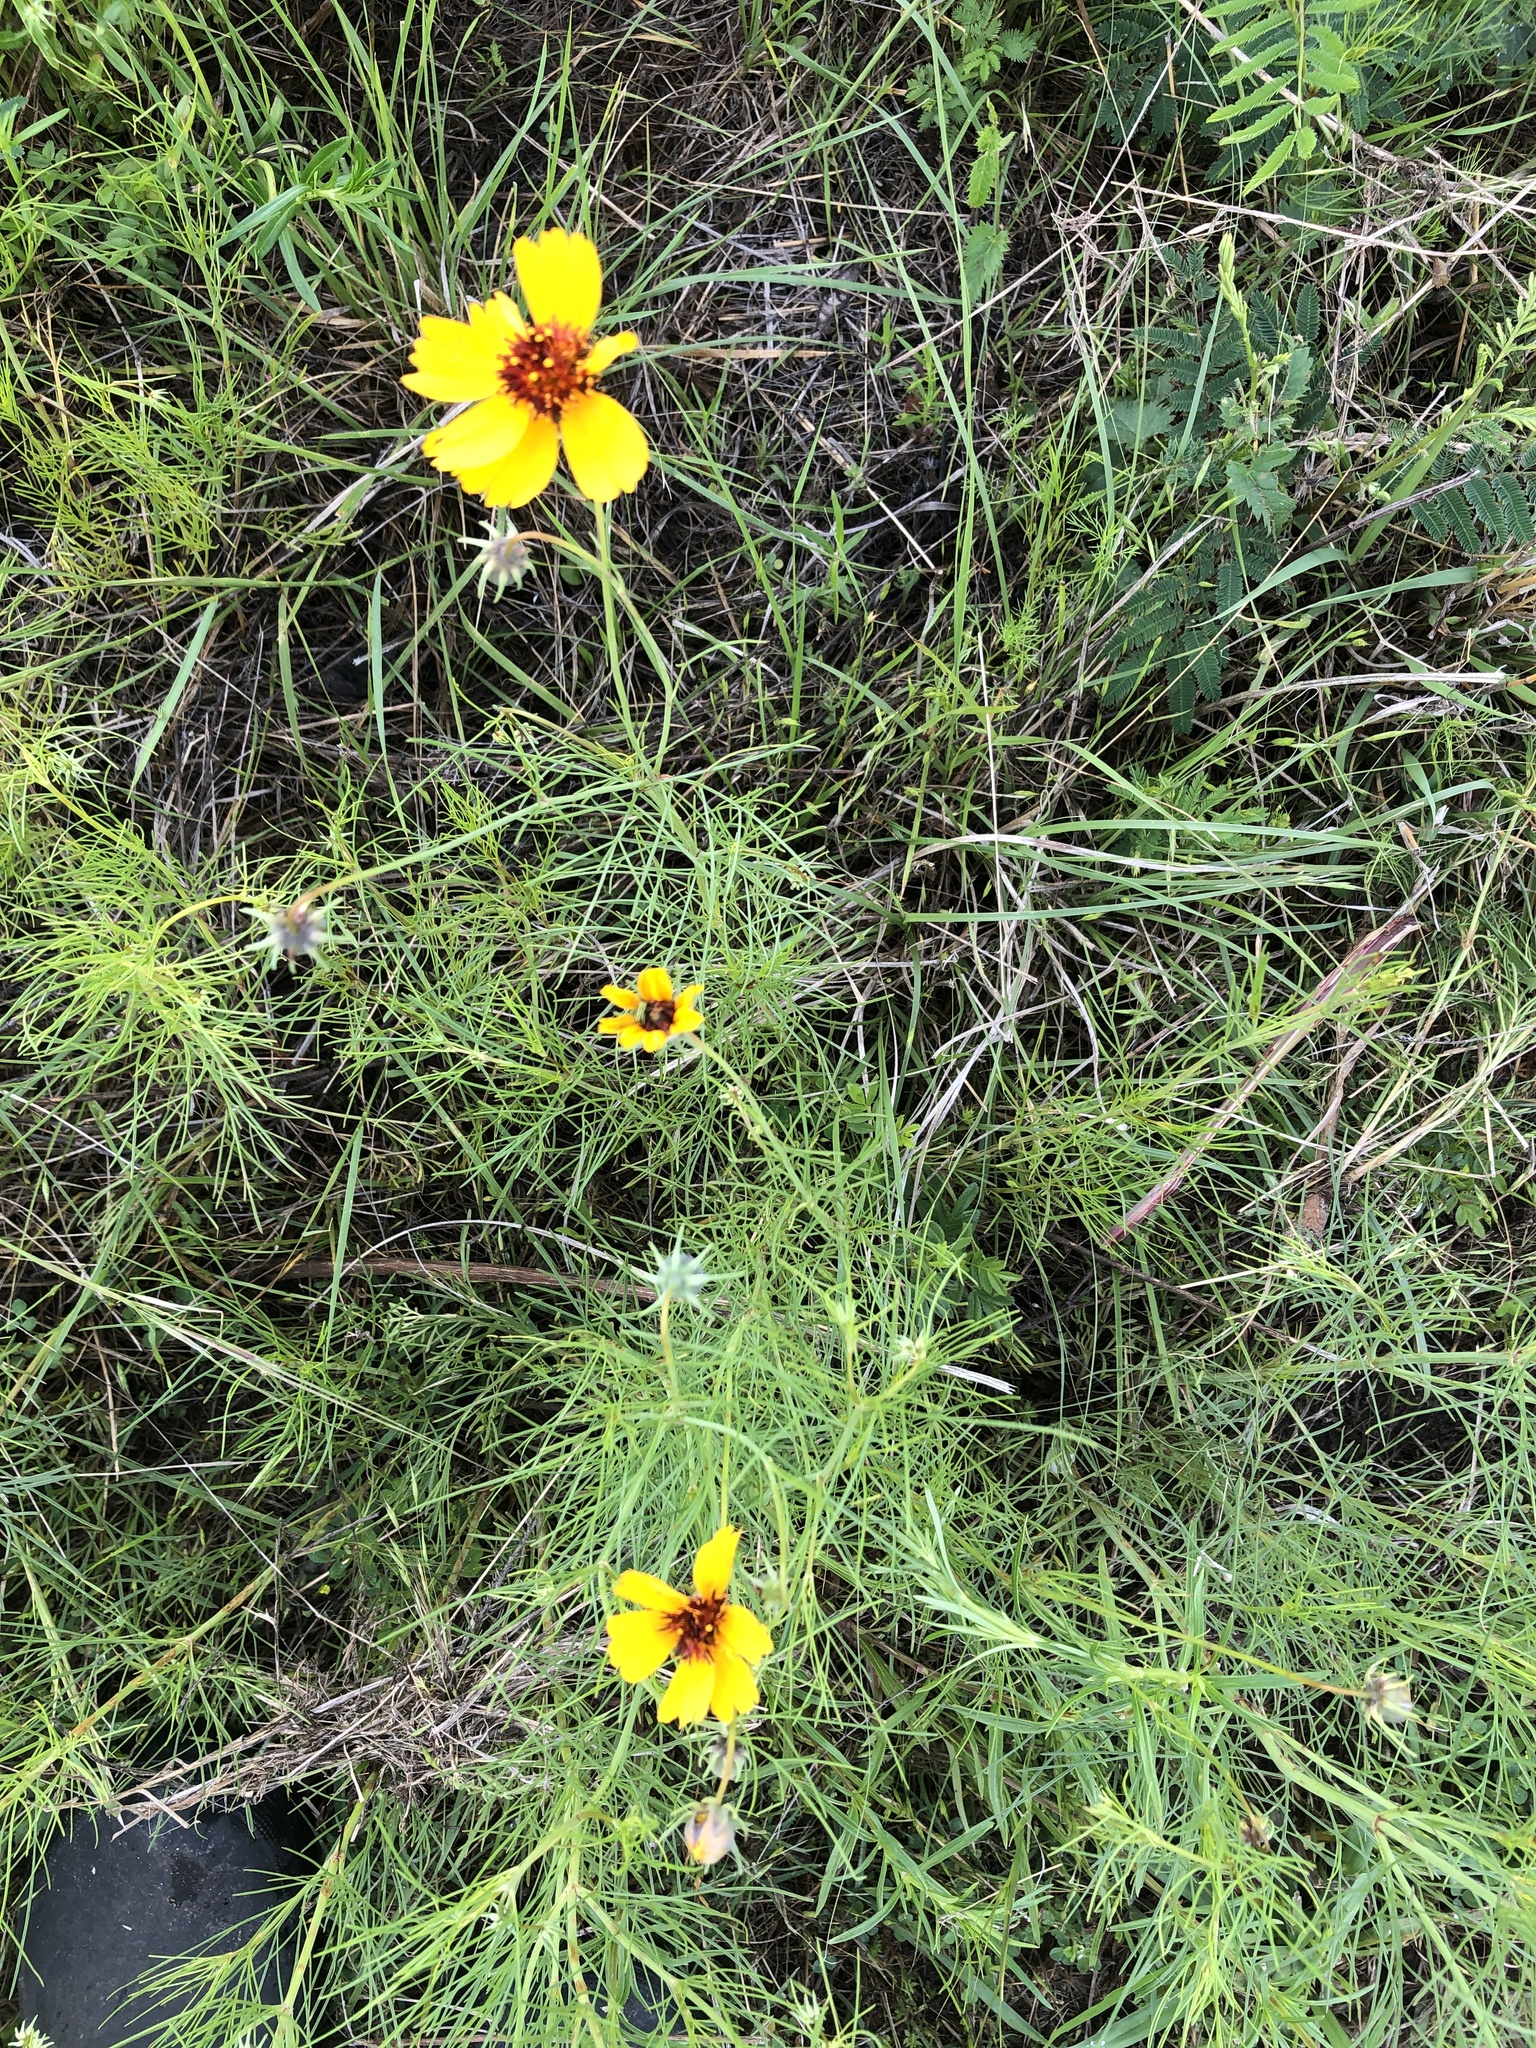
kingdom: Plantae
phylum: Tracheophyta
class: Magnoliopsida
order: Asterales
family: Asteraceae
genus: Thelesperma
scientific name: Thelesperma filifolium
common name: Stiff greenthread
